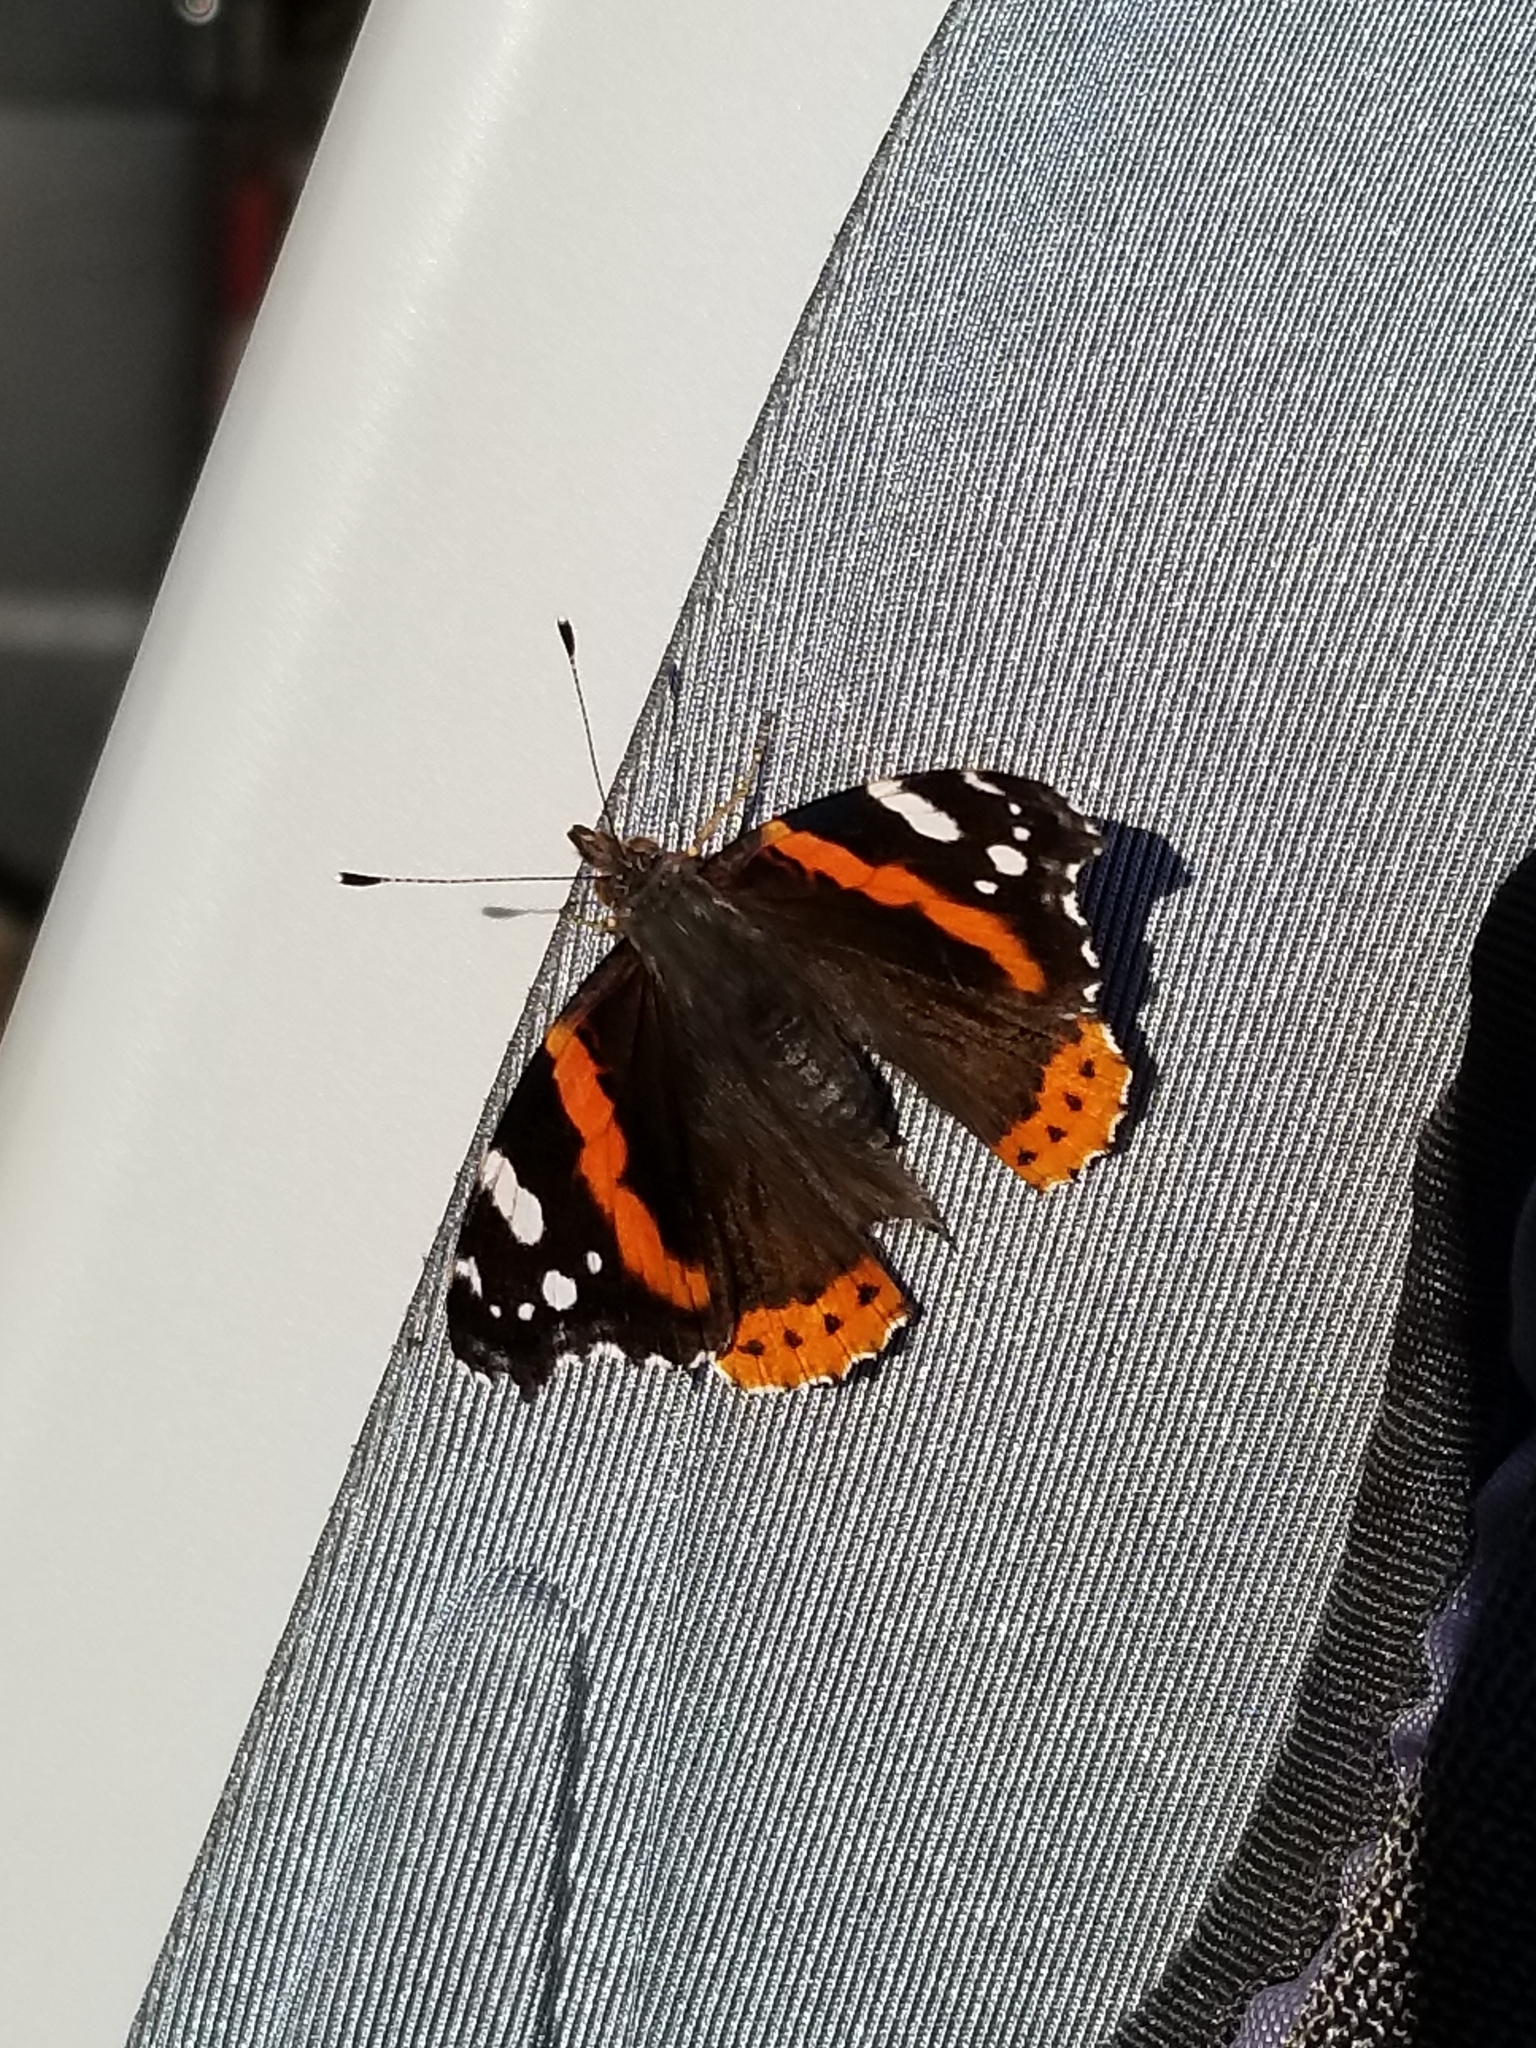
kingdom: Animalia
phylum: Arthropoda
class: Insecta
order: Lepidoptera
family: Nymphalidae
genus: Vanessa
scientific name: Vanessa atalanta
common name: Red admiral
